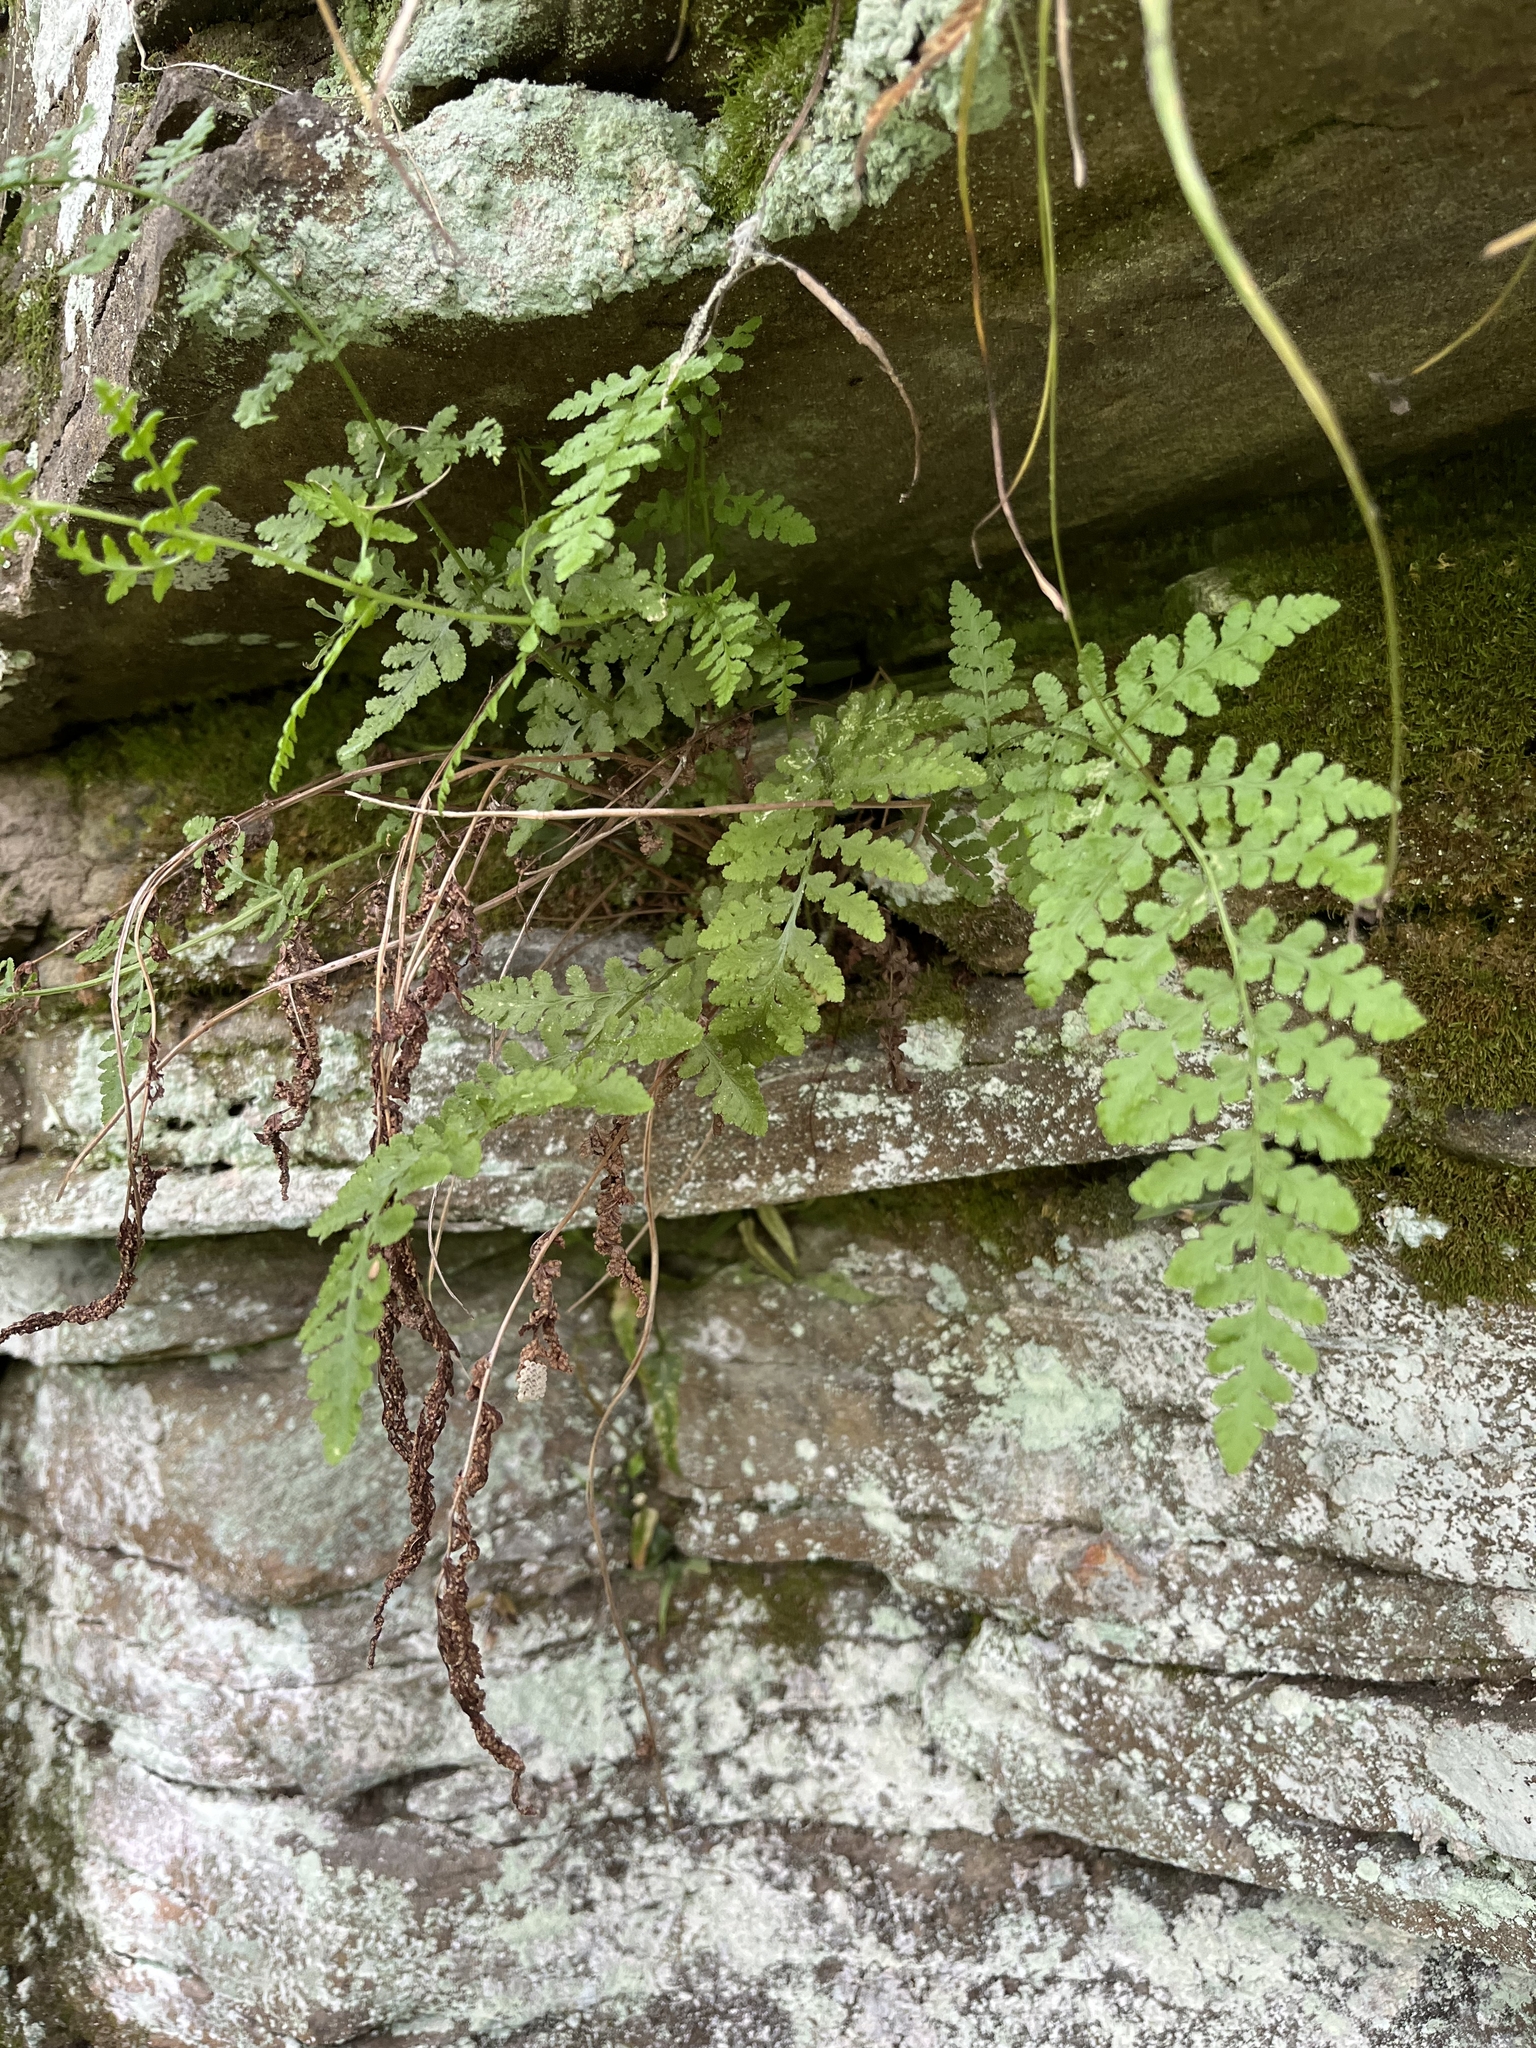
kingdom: Plantae
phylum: Tracheophyta
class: Polypodiopsida
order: Polypodiales
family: Woodsiaceae
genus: Physematium
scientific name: Physematium obtusum
